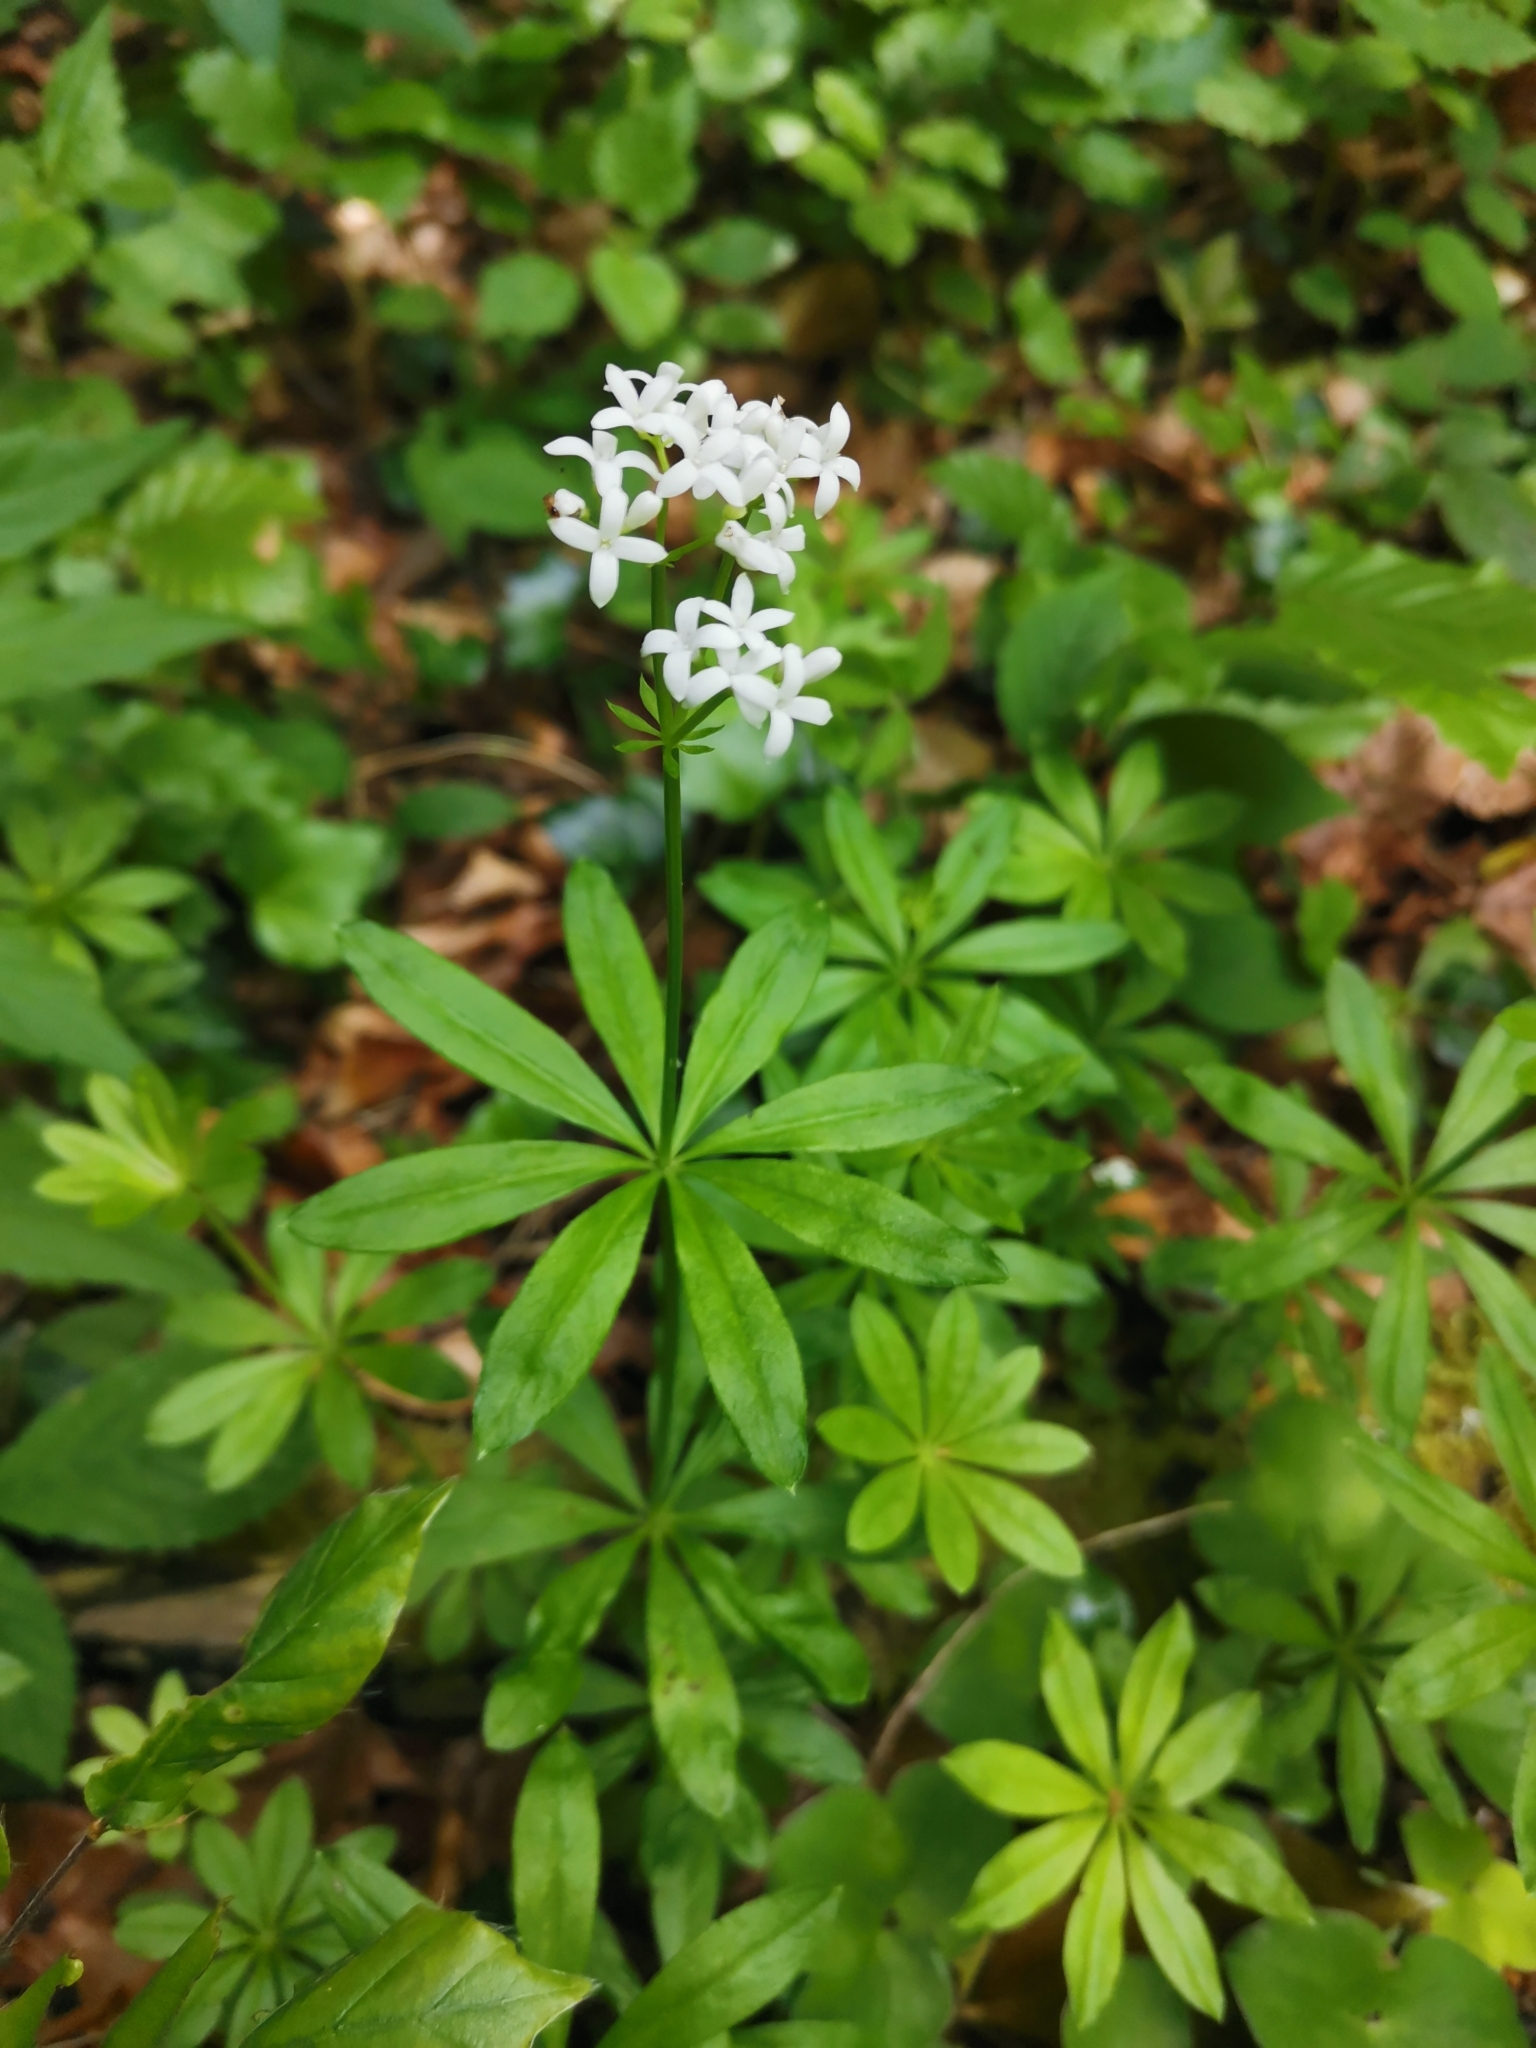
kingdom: Plantae
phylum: Tracheophyta
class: Magnoliopsida
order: Gentianales
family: Rubiaceae
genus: Galium
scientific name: Galium odoratum
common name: Sweet woodruff
